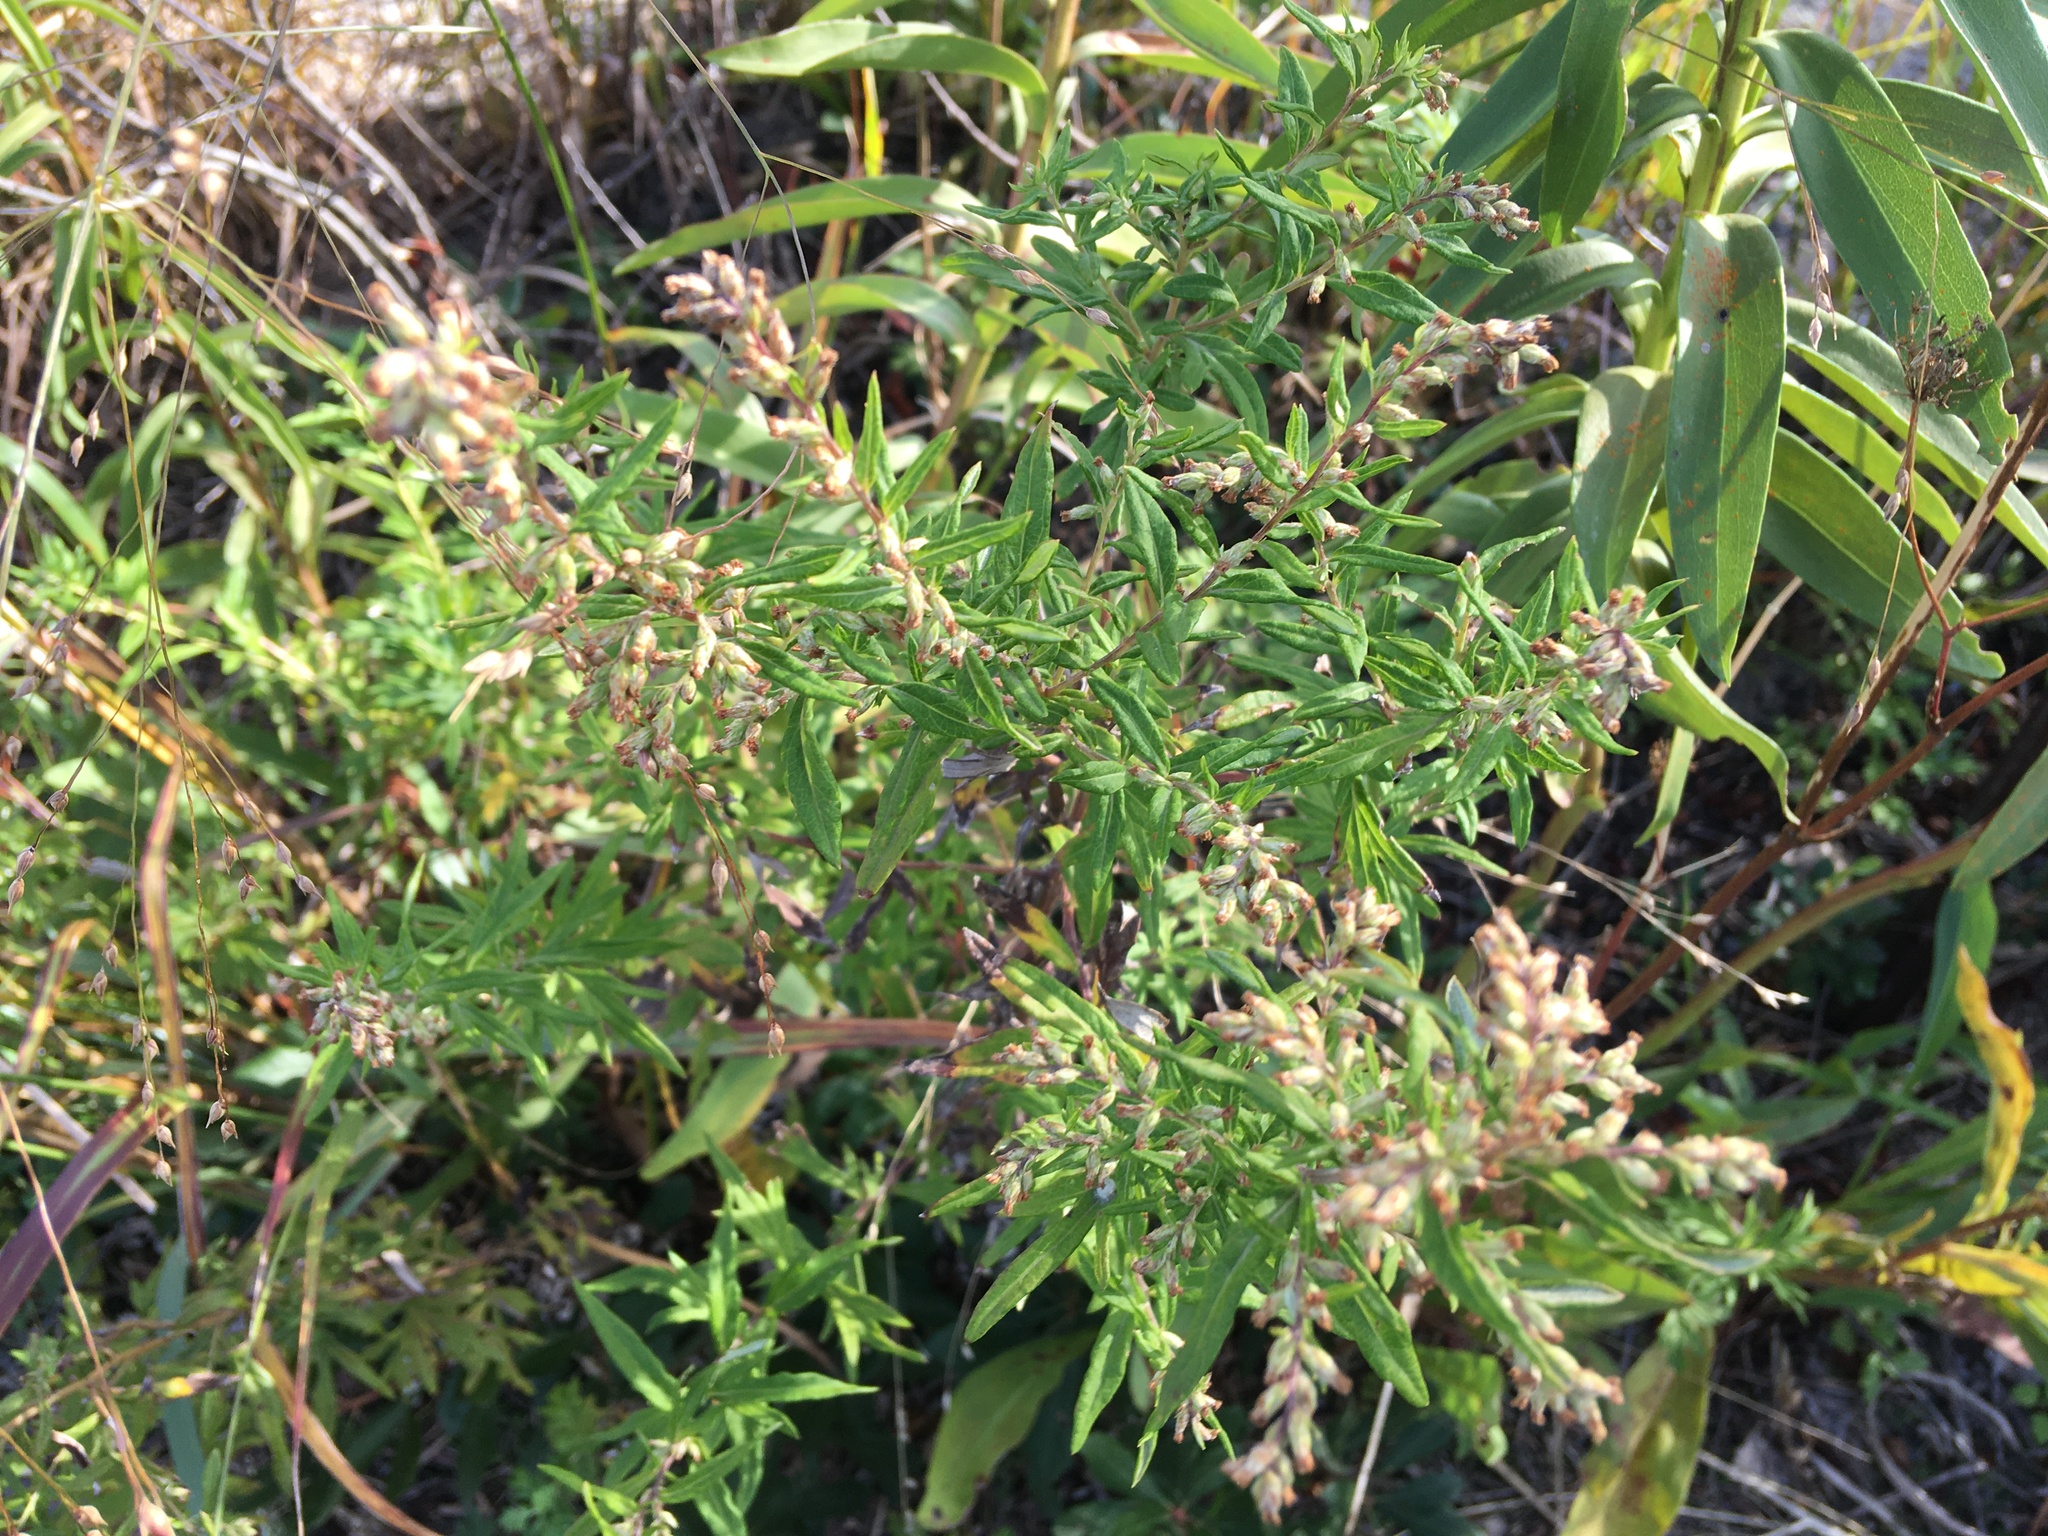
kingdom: Plantae
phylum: Tracheophyta
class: Magnoliopsida
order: Asterales
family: Asteraceae
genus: Artemisia
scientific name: Artemisia vulgaris
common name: Mugwort
